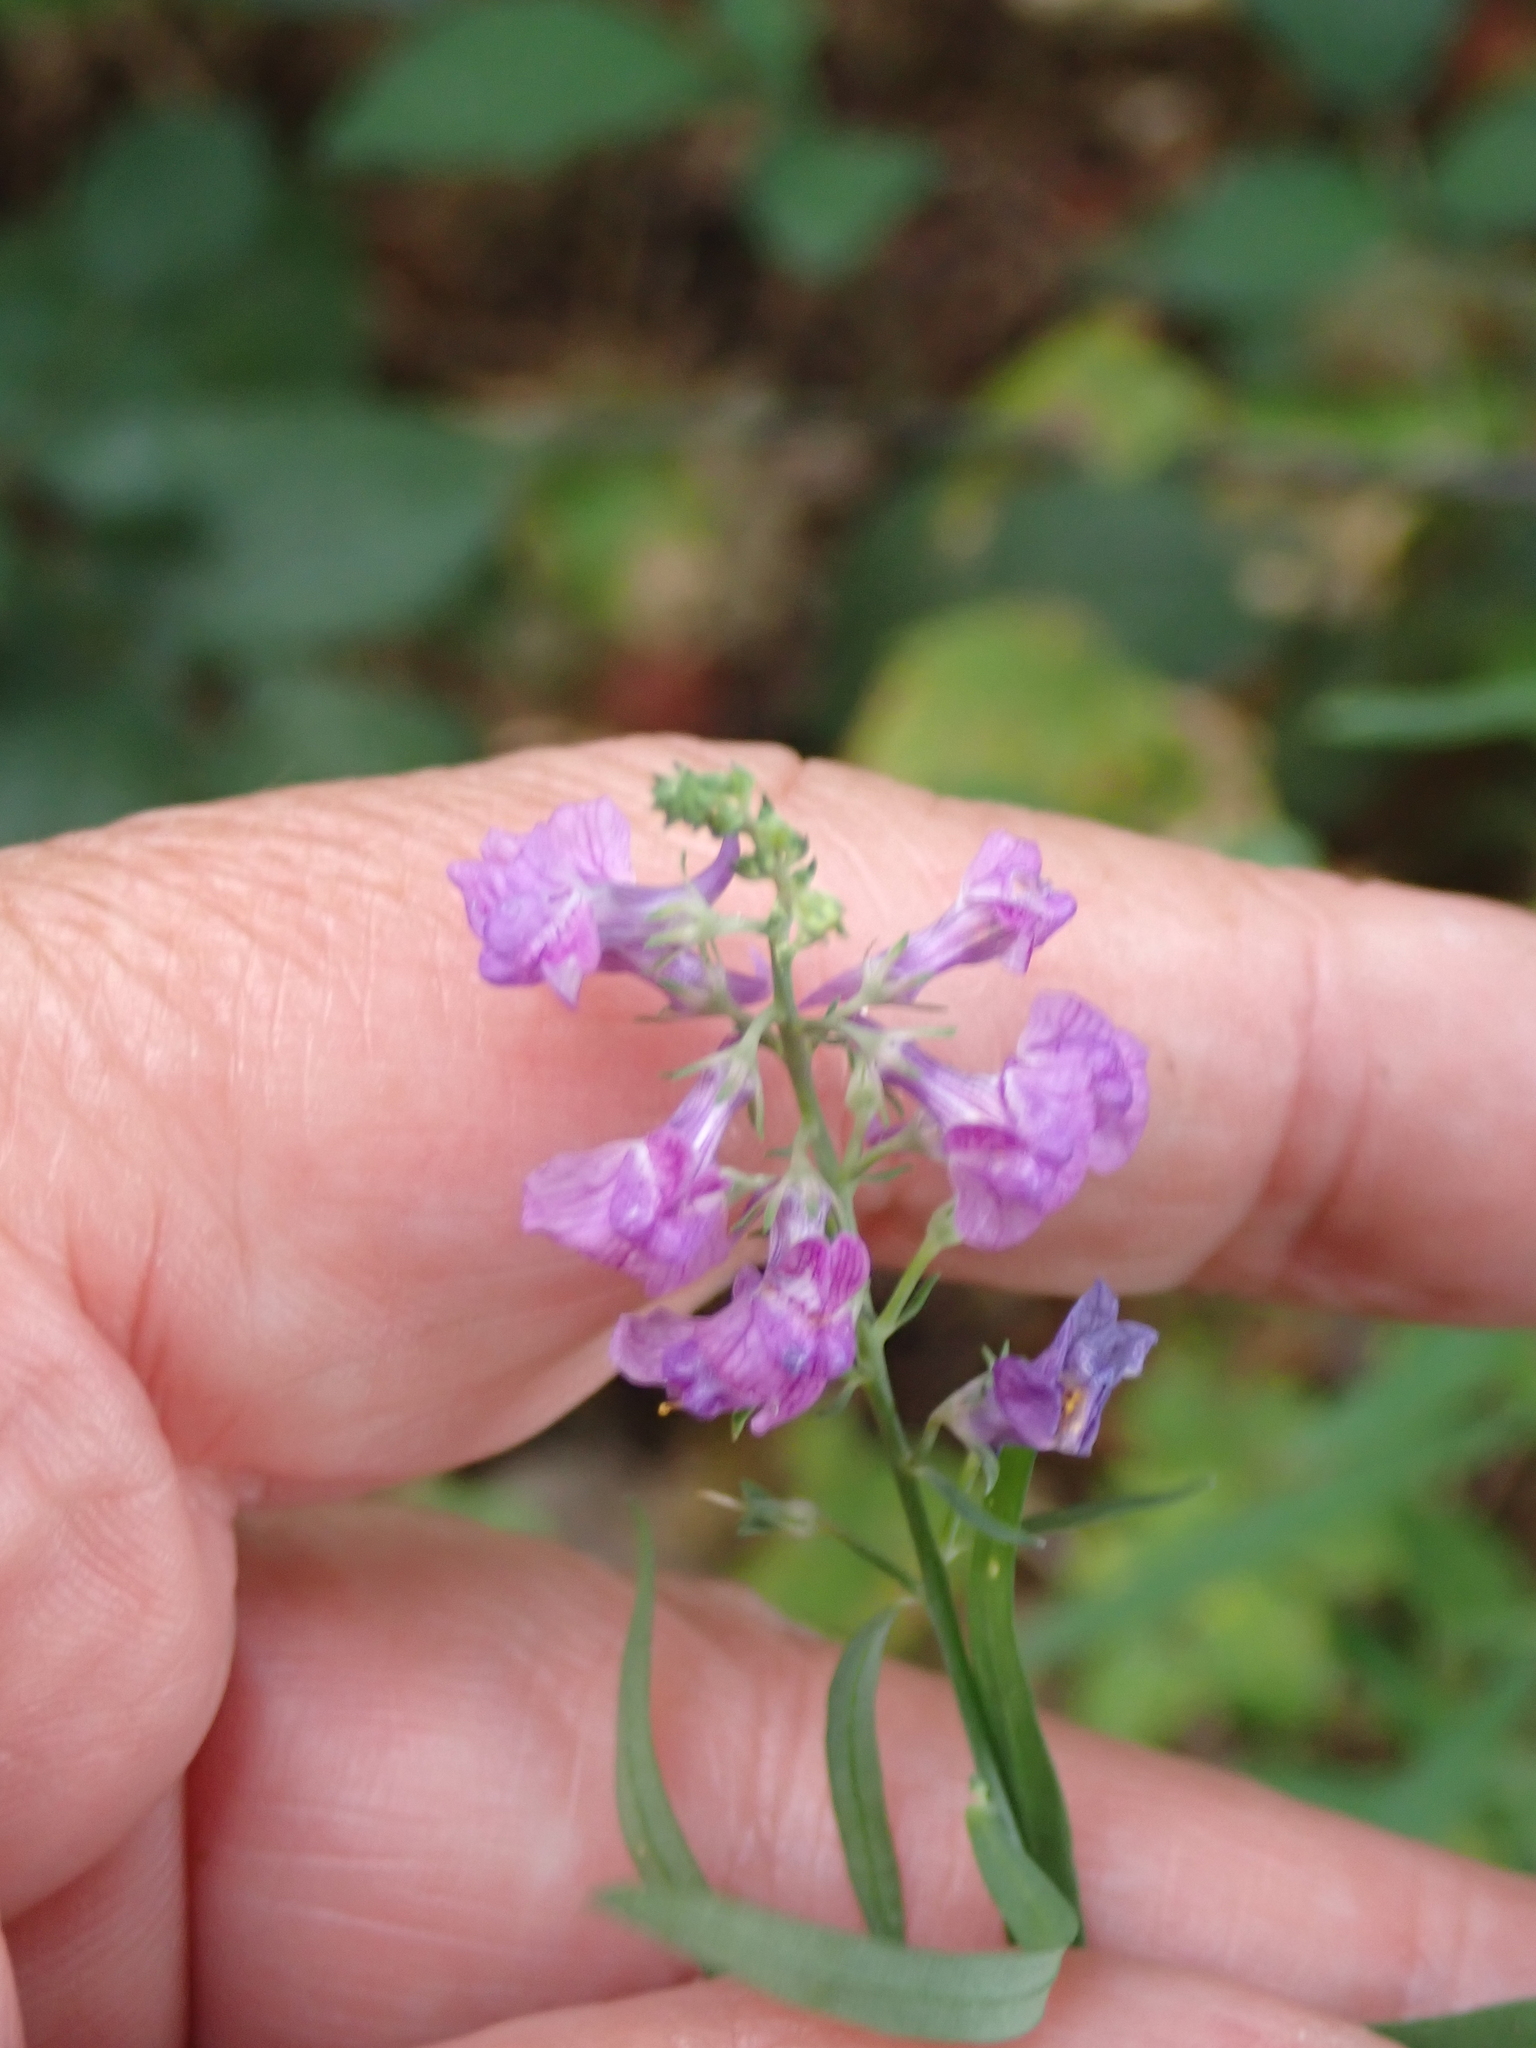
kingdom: Plantae
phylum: Tracheophyta
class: Magnoliopsida
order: Lamiales
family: Plantaginaceae
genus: Linaria
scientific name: Linaria purpurea
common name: Purple toadflax
